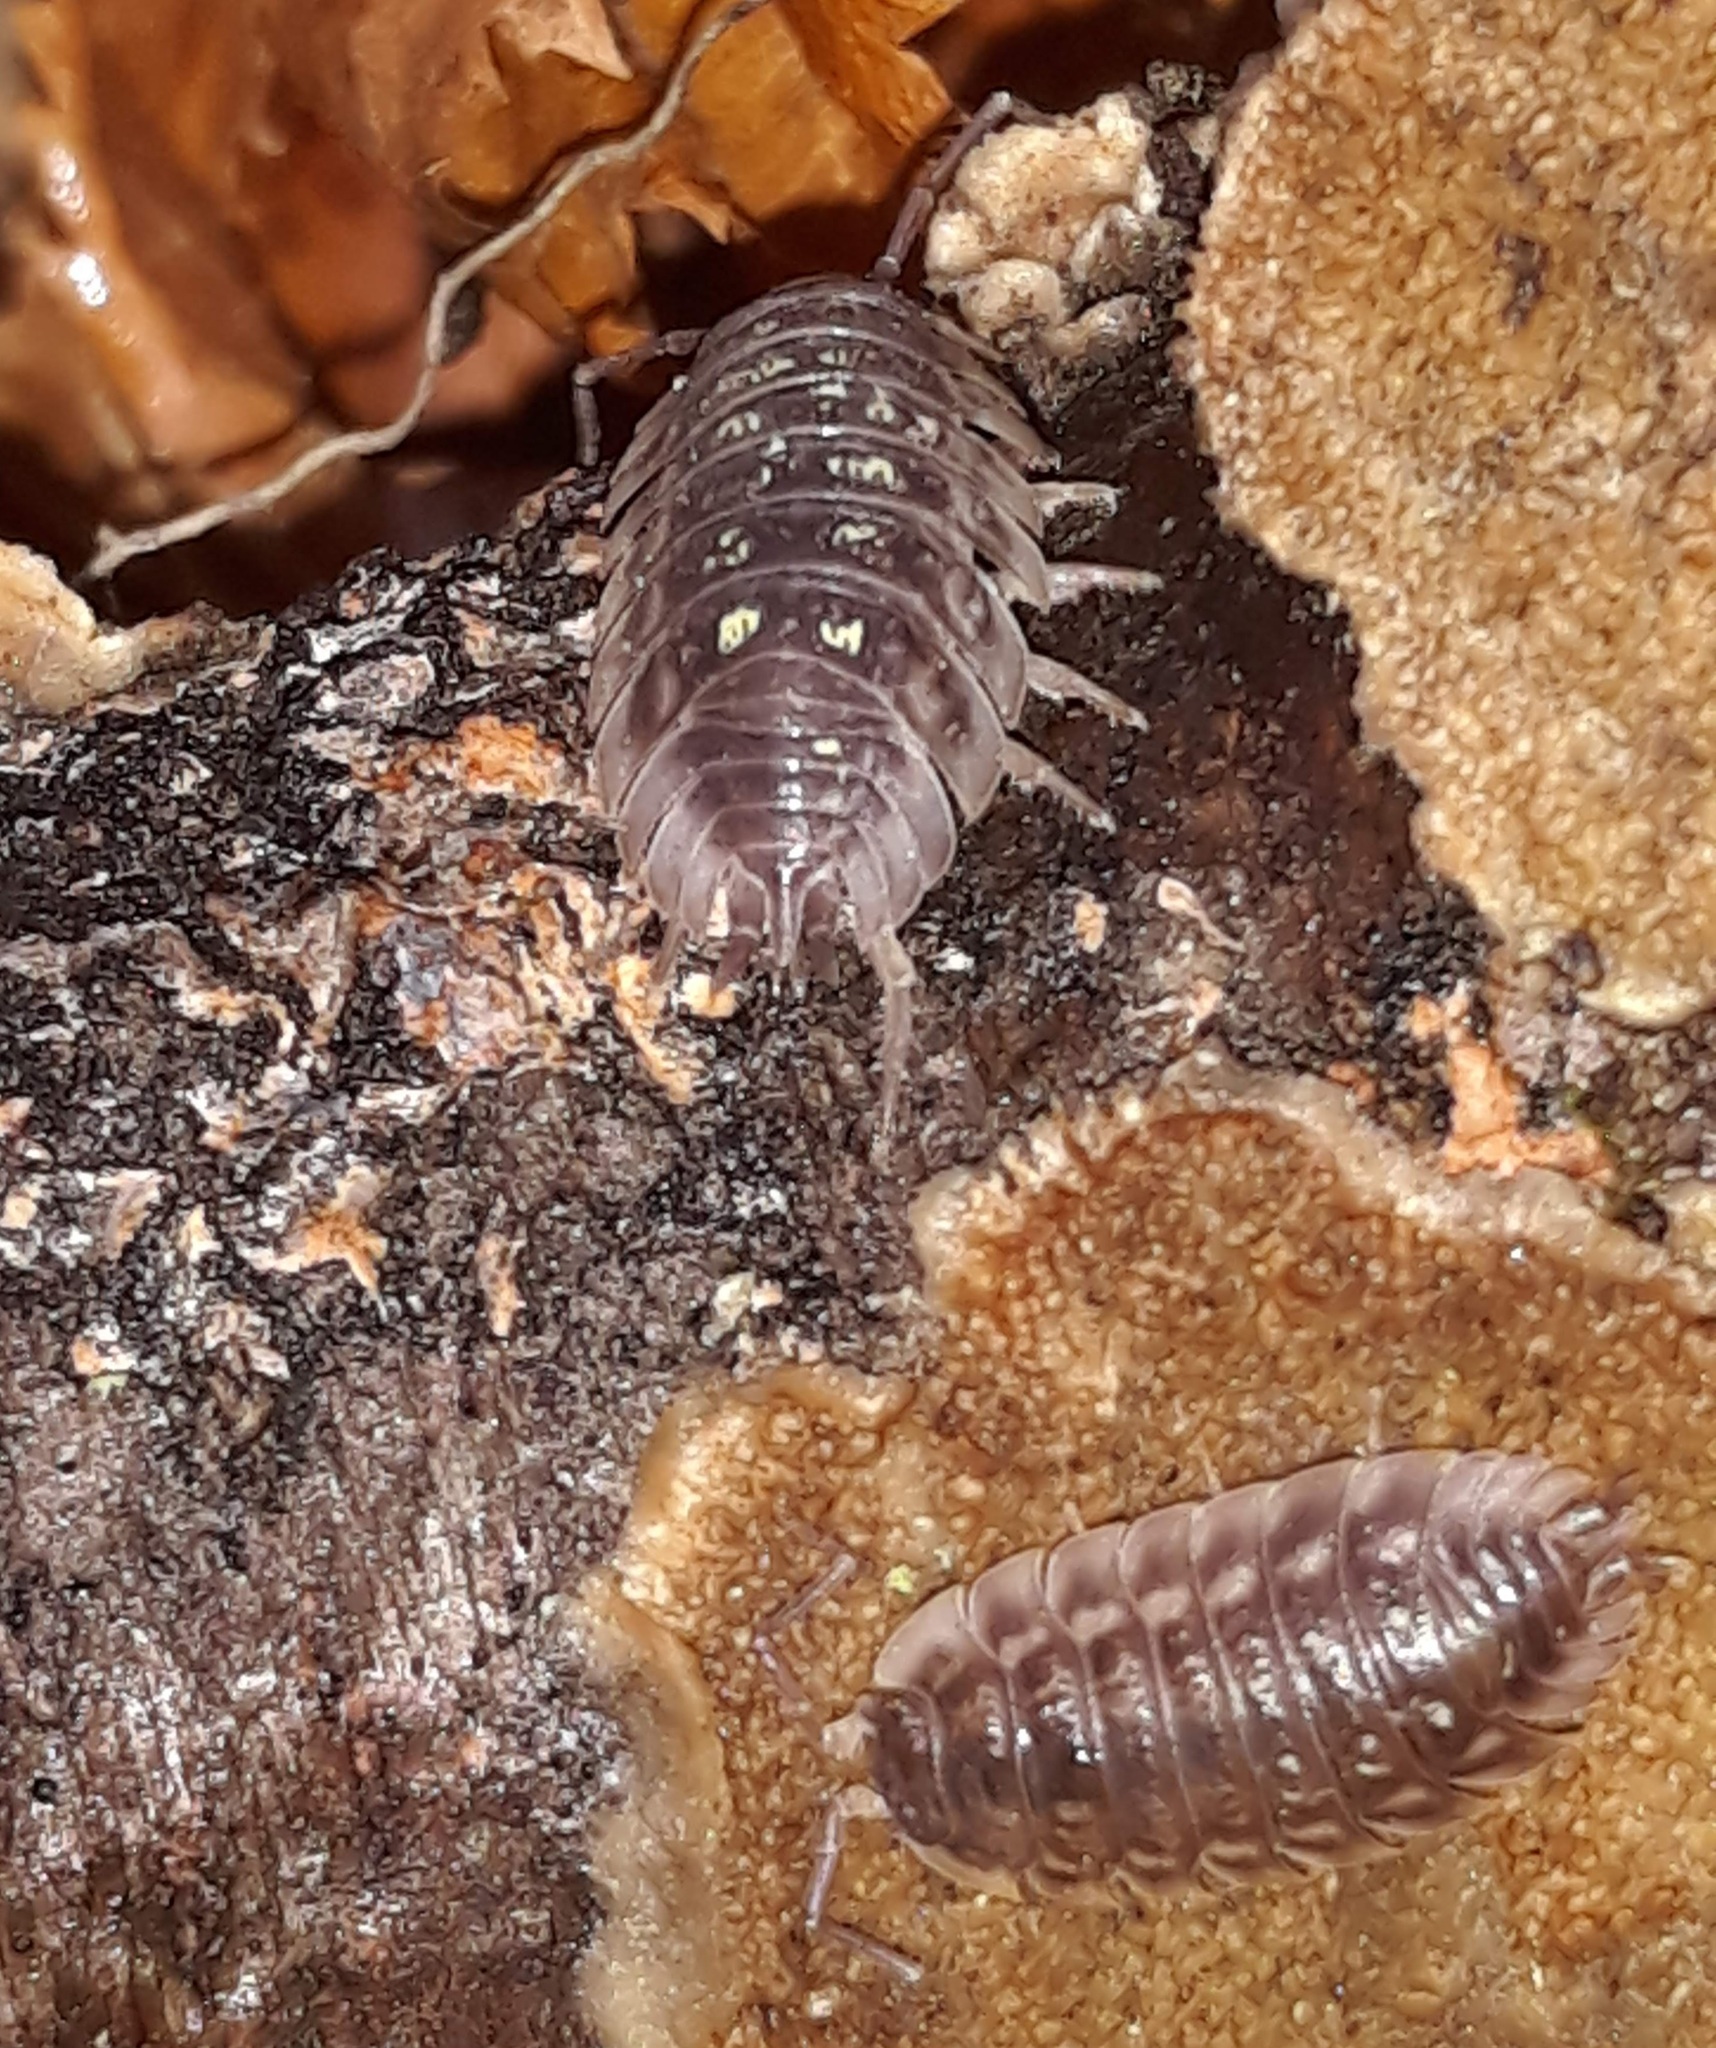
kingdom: Animalia
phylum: Arthropoda
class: Malacostraca
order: Isopoda
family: Oniscidae
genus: Oniscus
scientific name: Oniscus asellus
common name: Common shiny woodlouse
